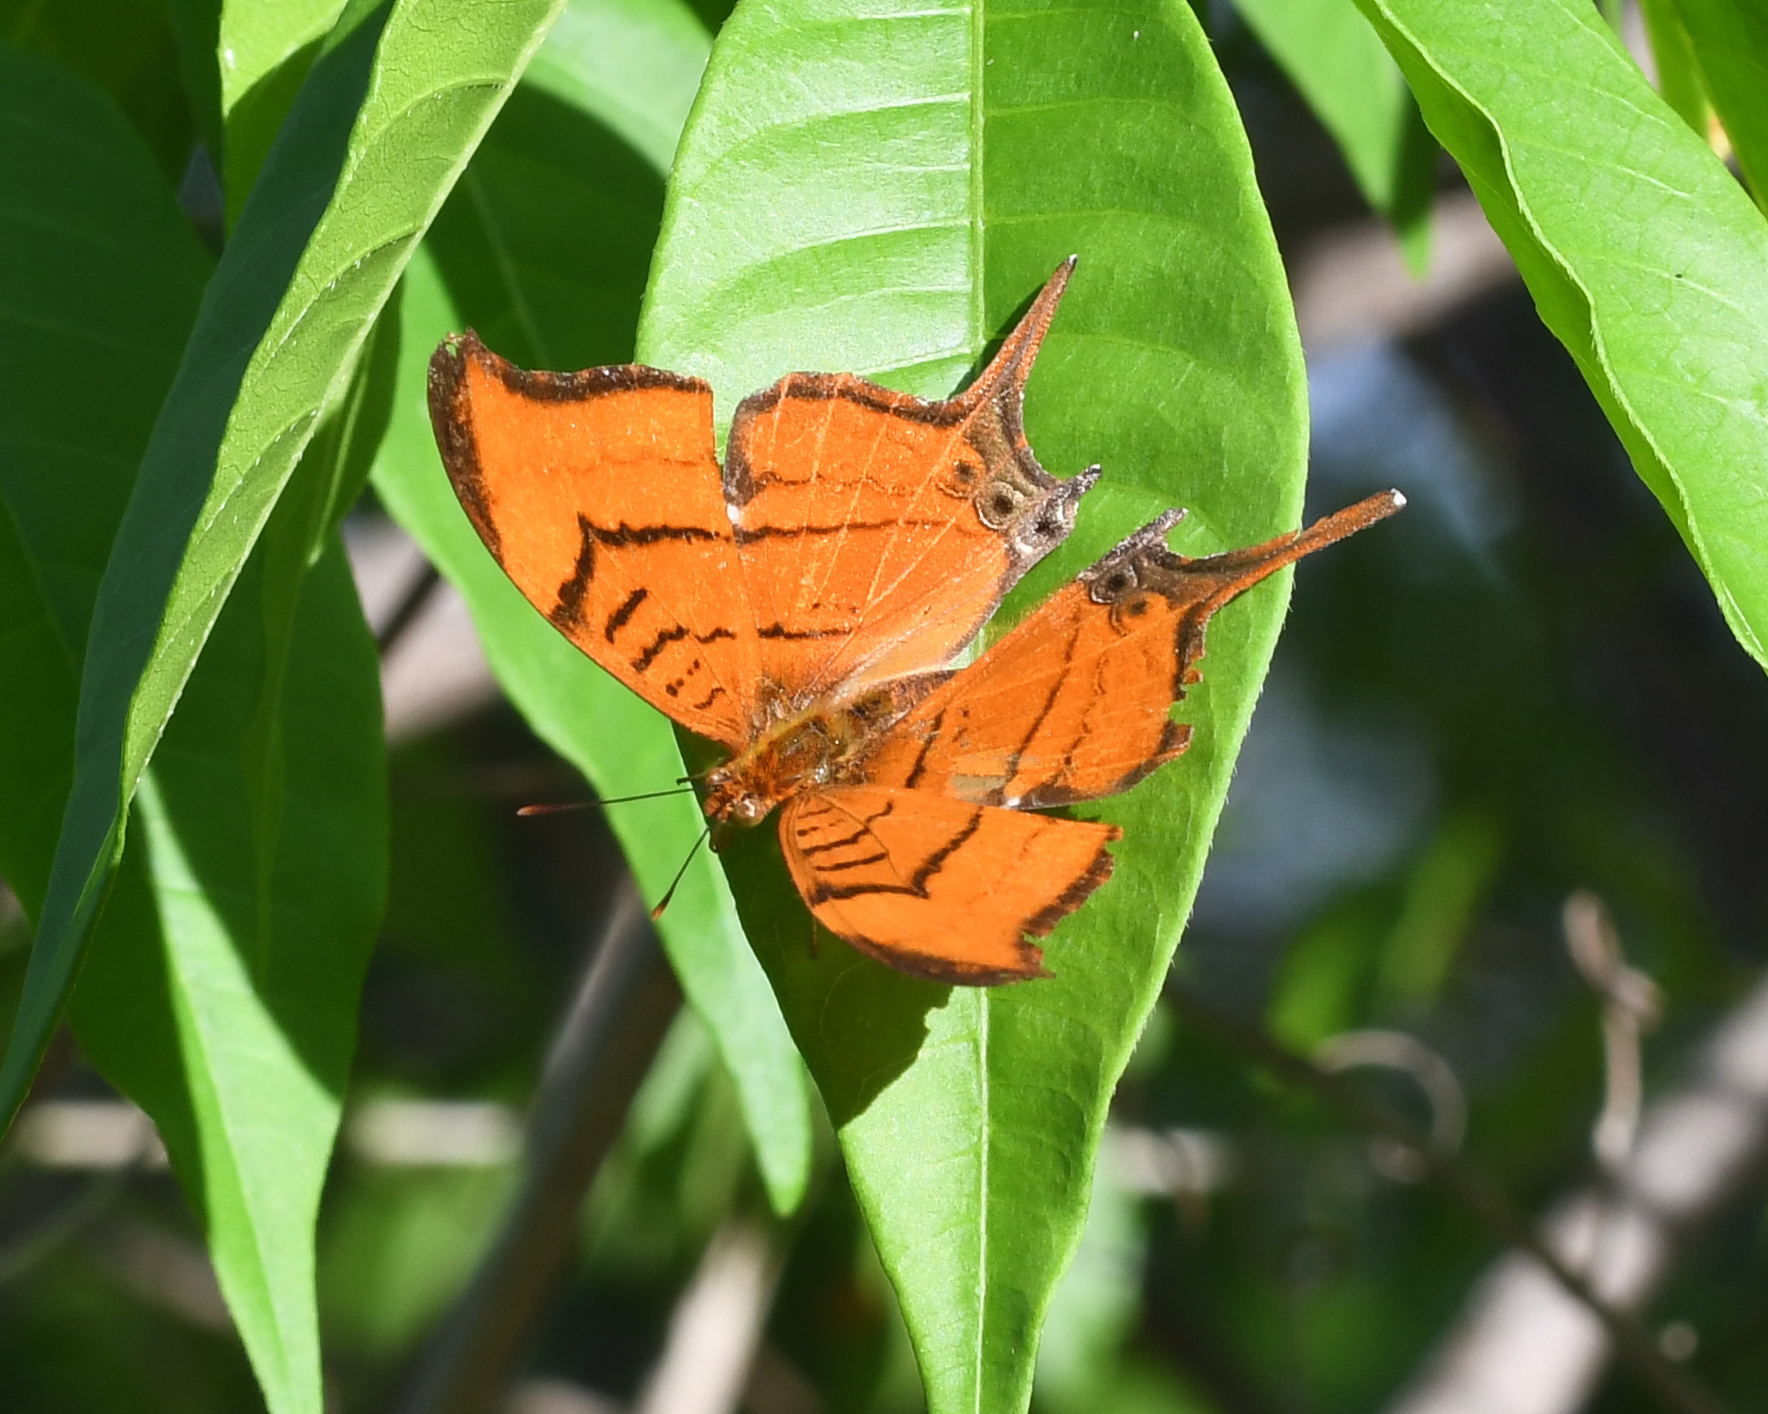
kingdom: Animalia
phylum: Arthropoda
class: Insecta
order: Lepidoptera
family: Nymphalidae
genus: Marpesia
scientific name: Marpesia eleuchea
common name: Antillean daggerwing
